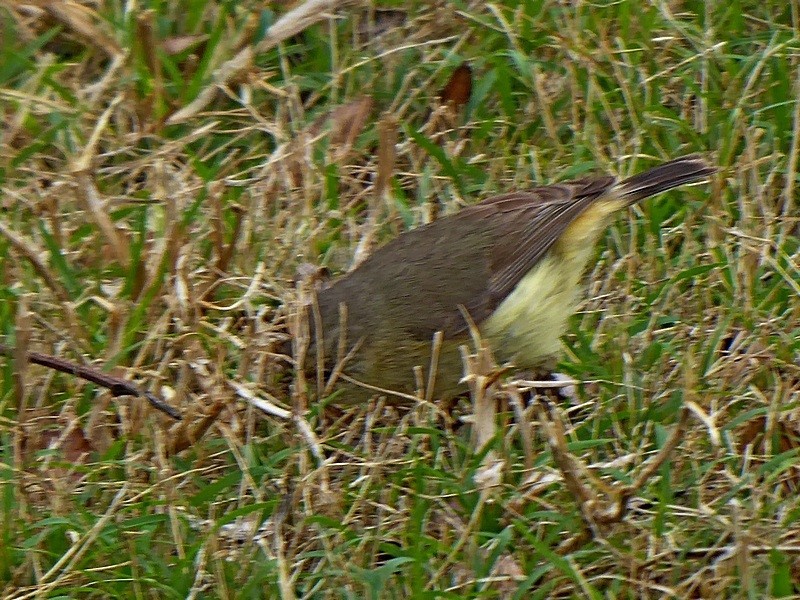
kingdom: Animalia
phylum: Chordata
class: Aves
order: Passeriformes
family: Acanthizidae
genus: Acanthiza
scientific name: Acanthiza reguloides
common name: Buff-rumped thornbill
